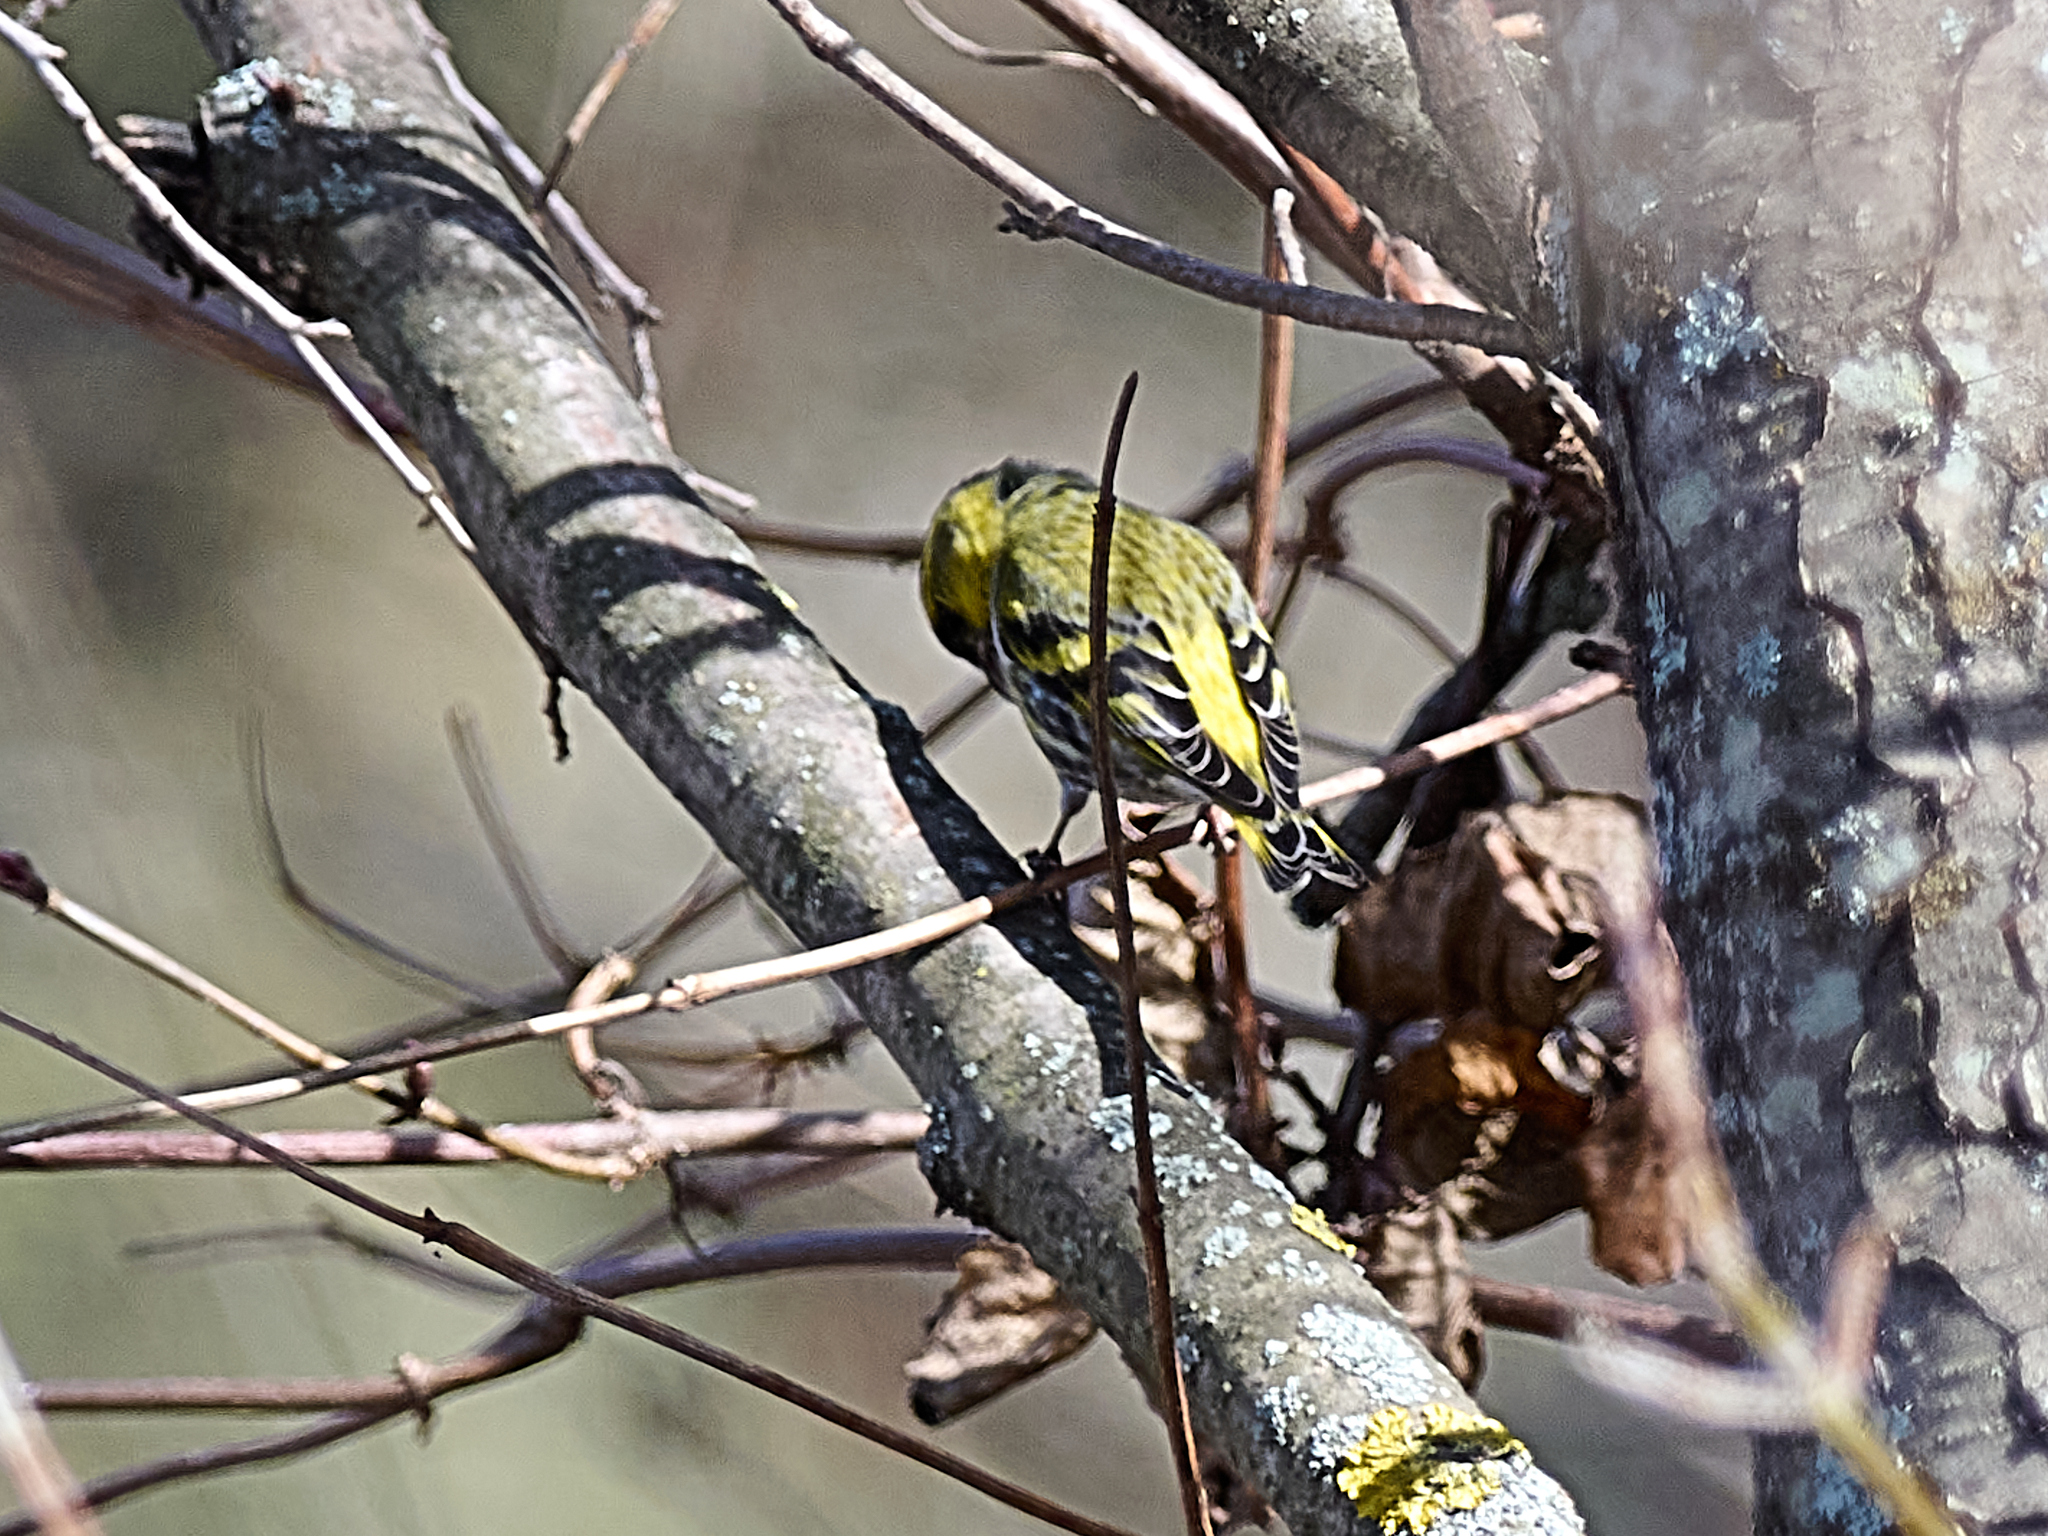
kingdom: Animalia
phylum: Chordata
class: Aves
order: Passeriformes
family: Fringillidae
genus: Spinus
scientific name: Spinus spinus
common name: Eurasian siskin
